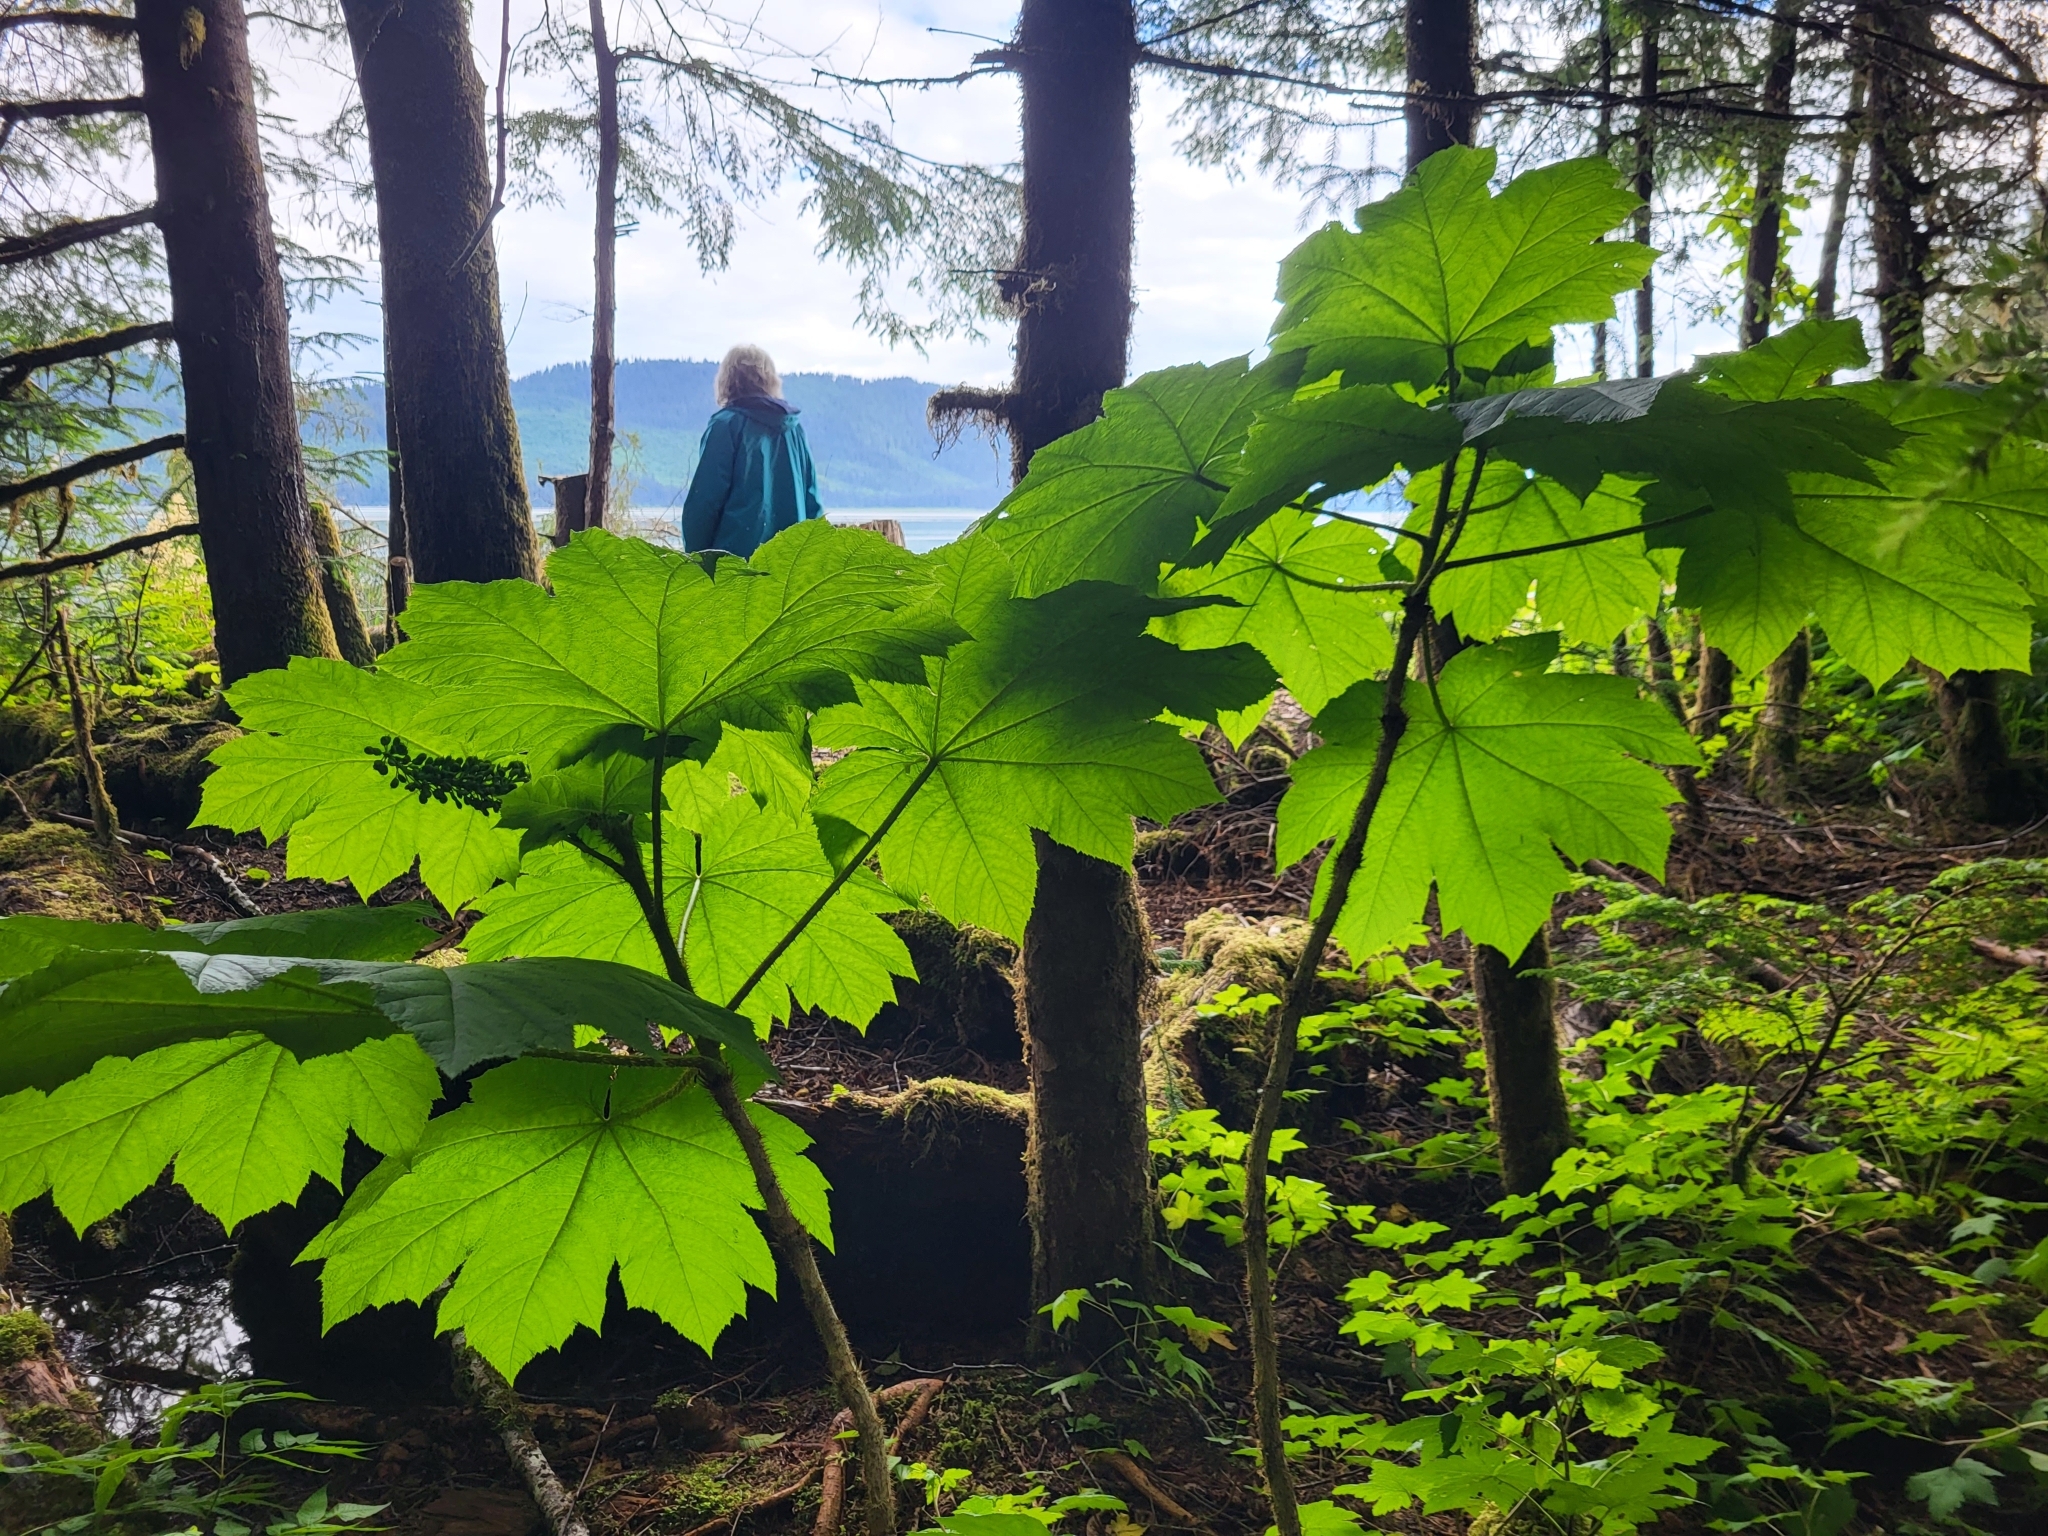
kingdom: Plantae
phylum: Tracheophyta
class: Magnoliopsida
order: Apiales
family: Araliaceae
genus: Oplopanax
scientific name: Oplopanax horridus
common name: Devil's walking-stick
